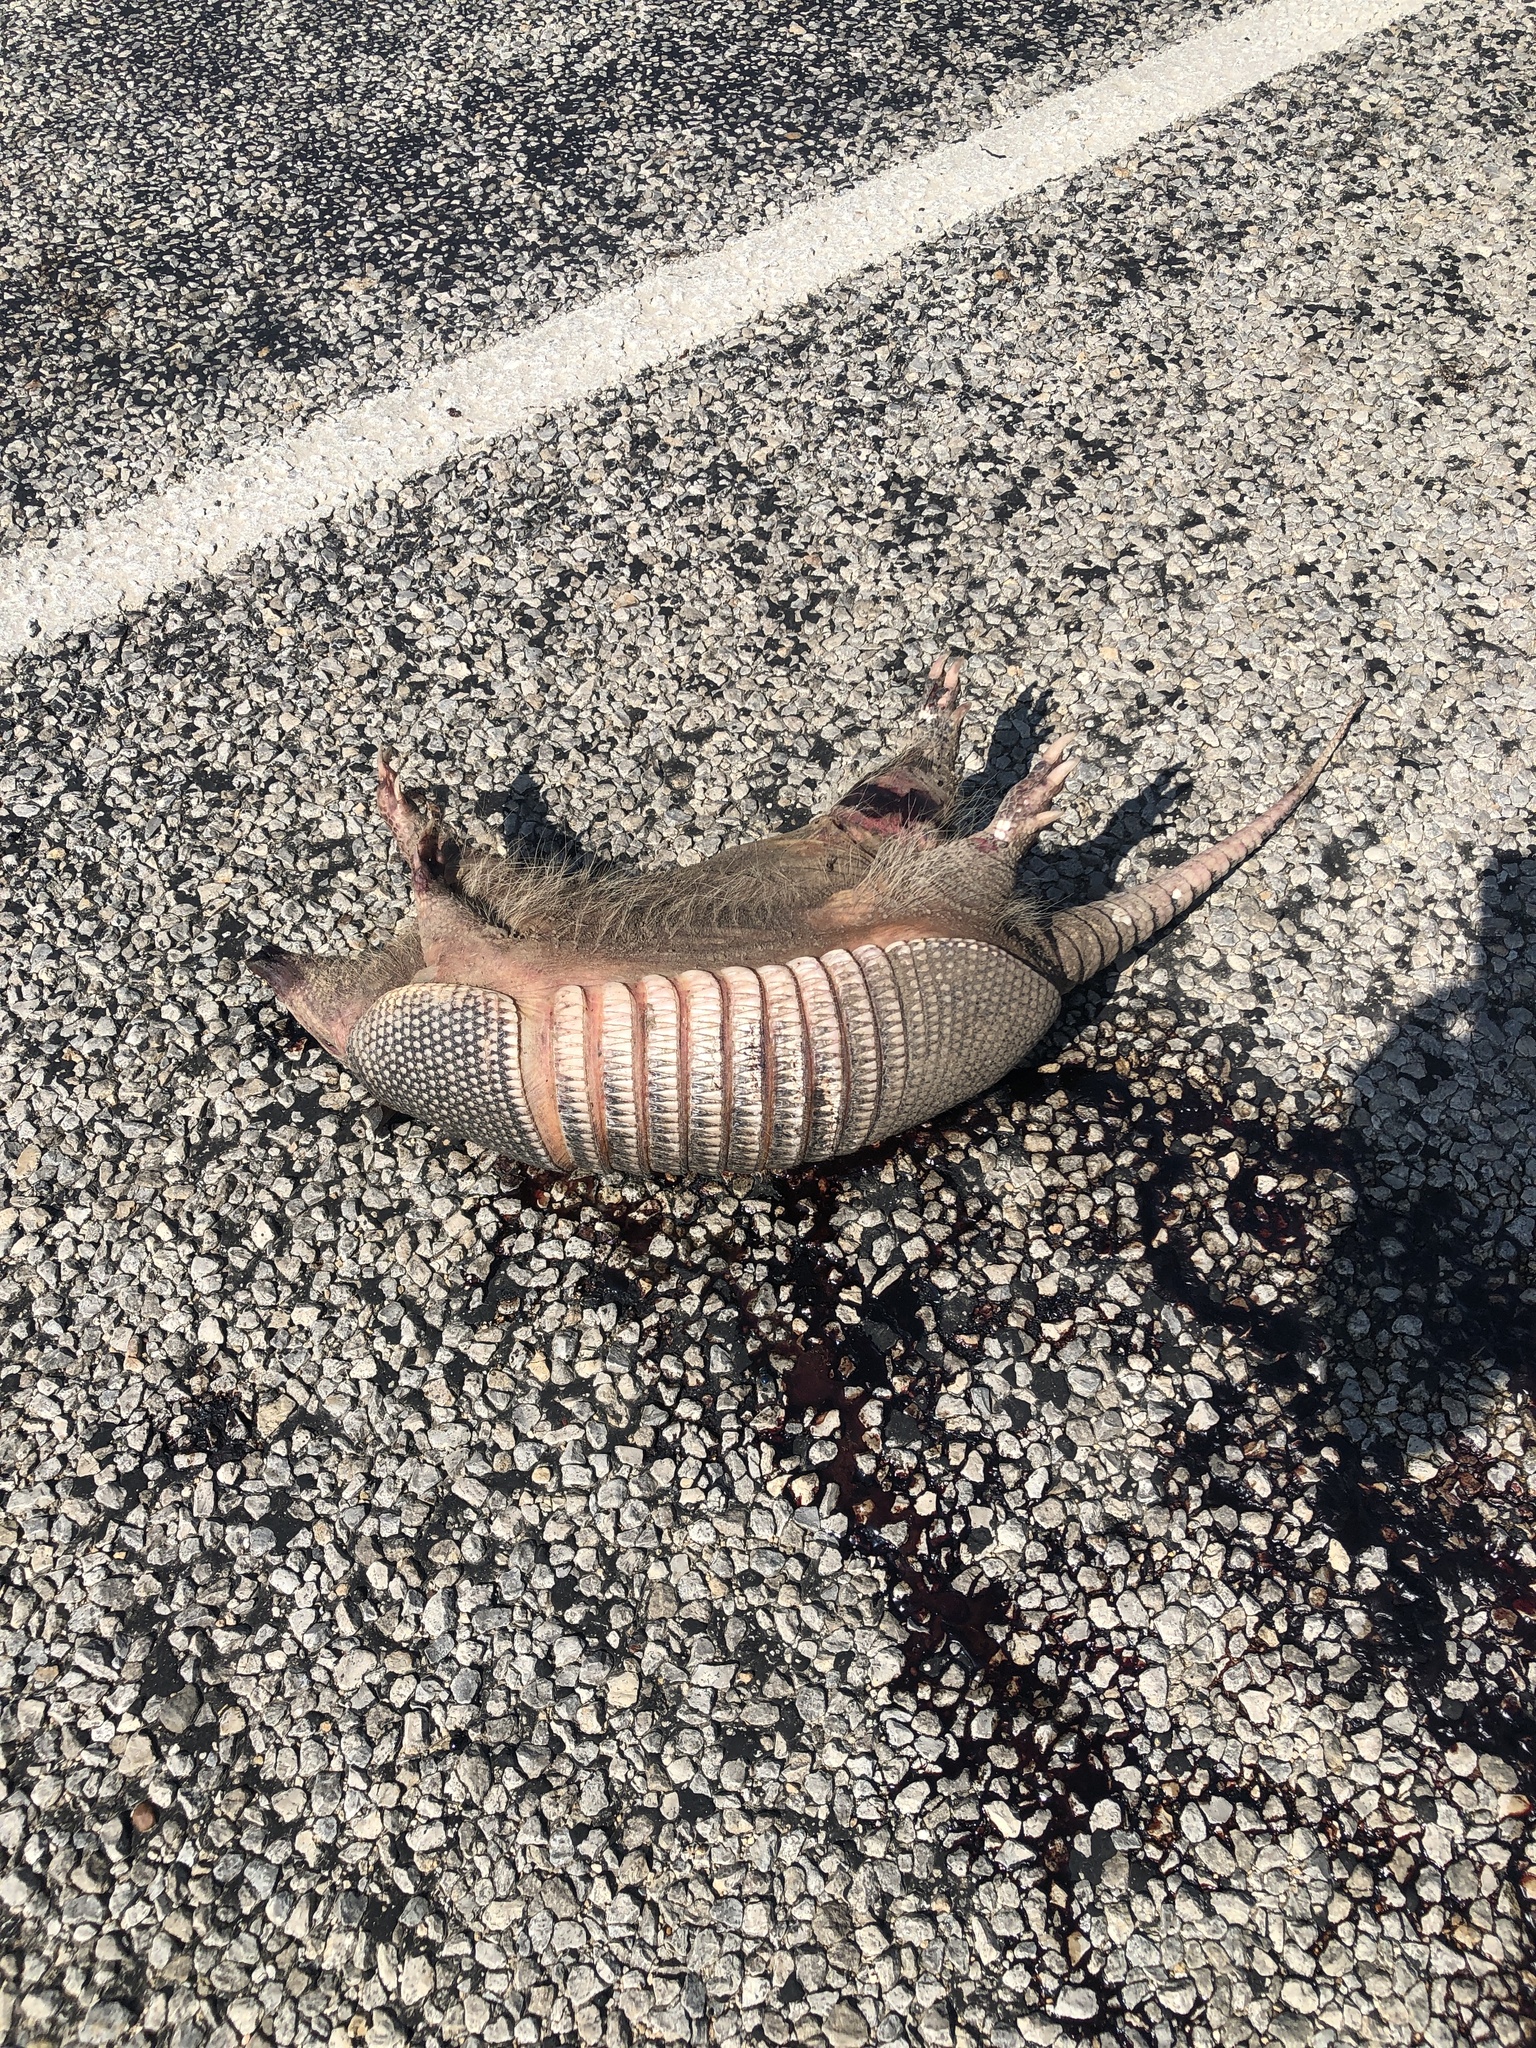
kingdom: Animalia
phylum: Chordata
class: Mammalia
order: Cingulata
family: Dasypodidae
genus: Dasypus
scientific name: Dasypus novemcinctus
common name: Nine-banded armadillo
